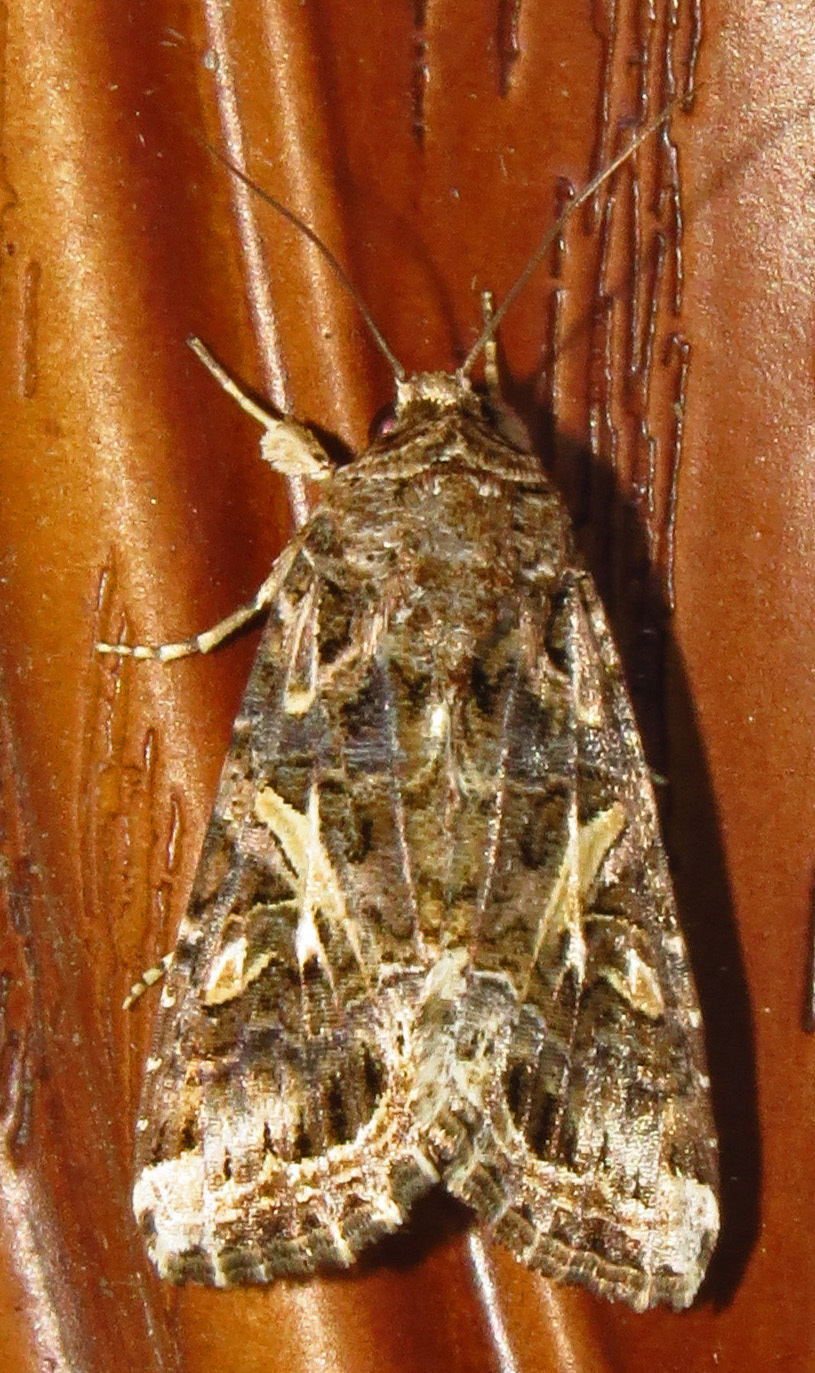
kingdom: Animalia
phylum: Arthropoda
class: Insecta
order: Lepidoptera
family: Noctuidae
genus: Spodoptera
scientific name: Spodoptera ornithogalli
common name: Yellow-striped armyworm
